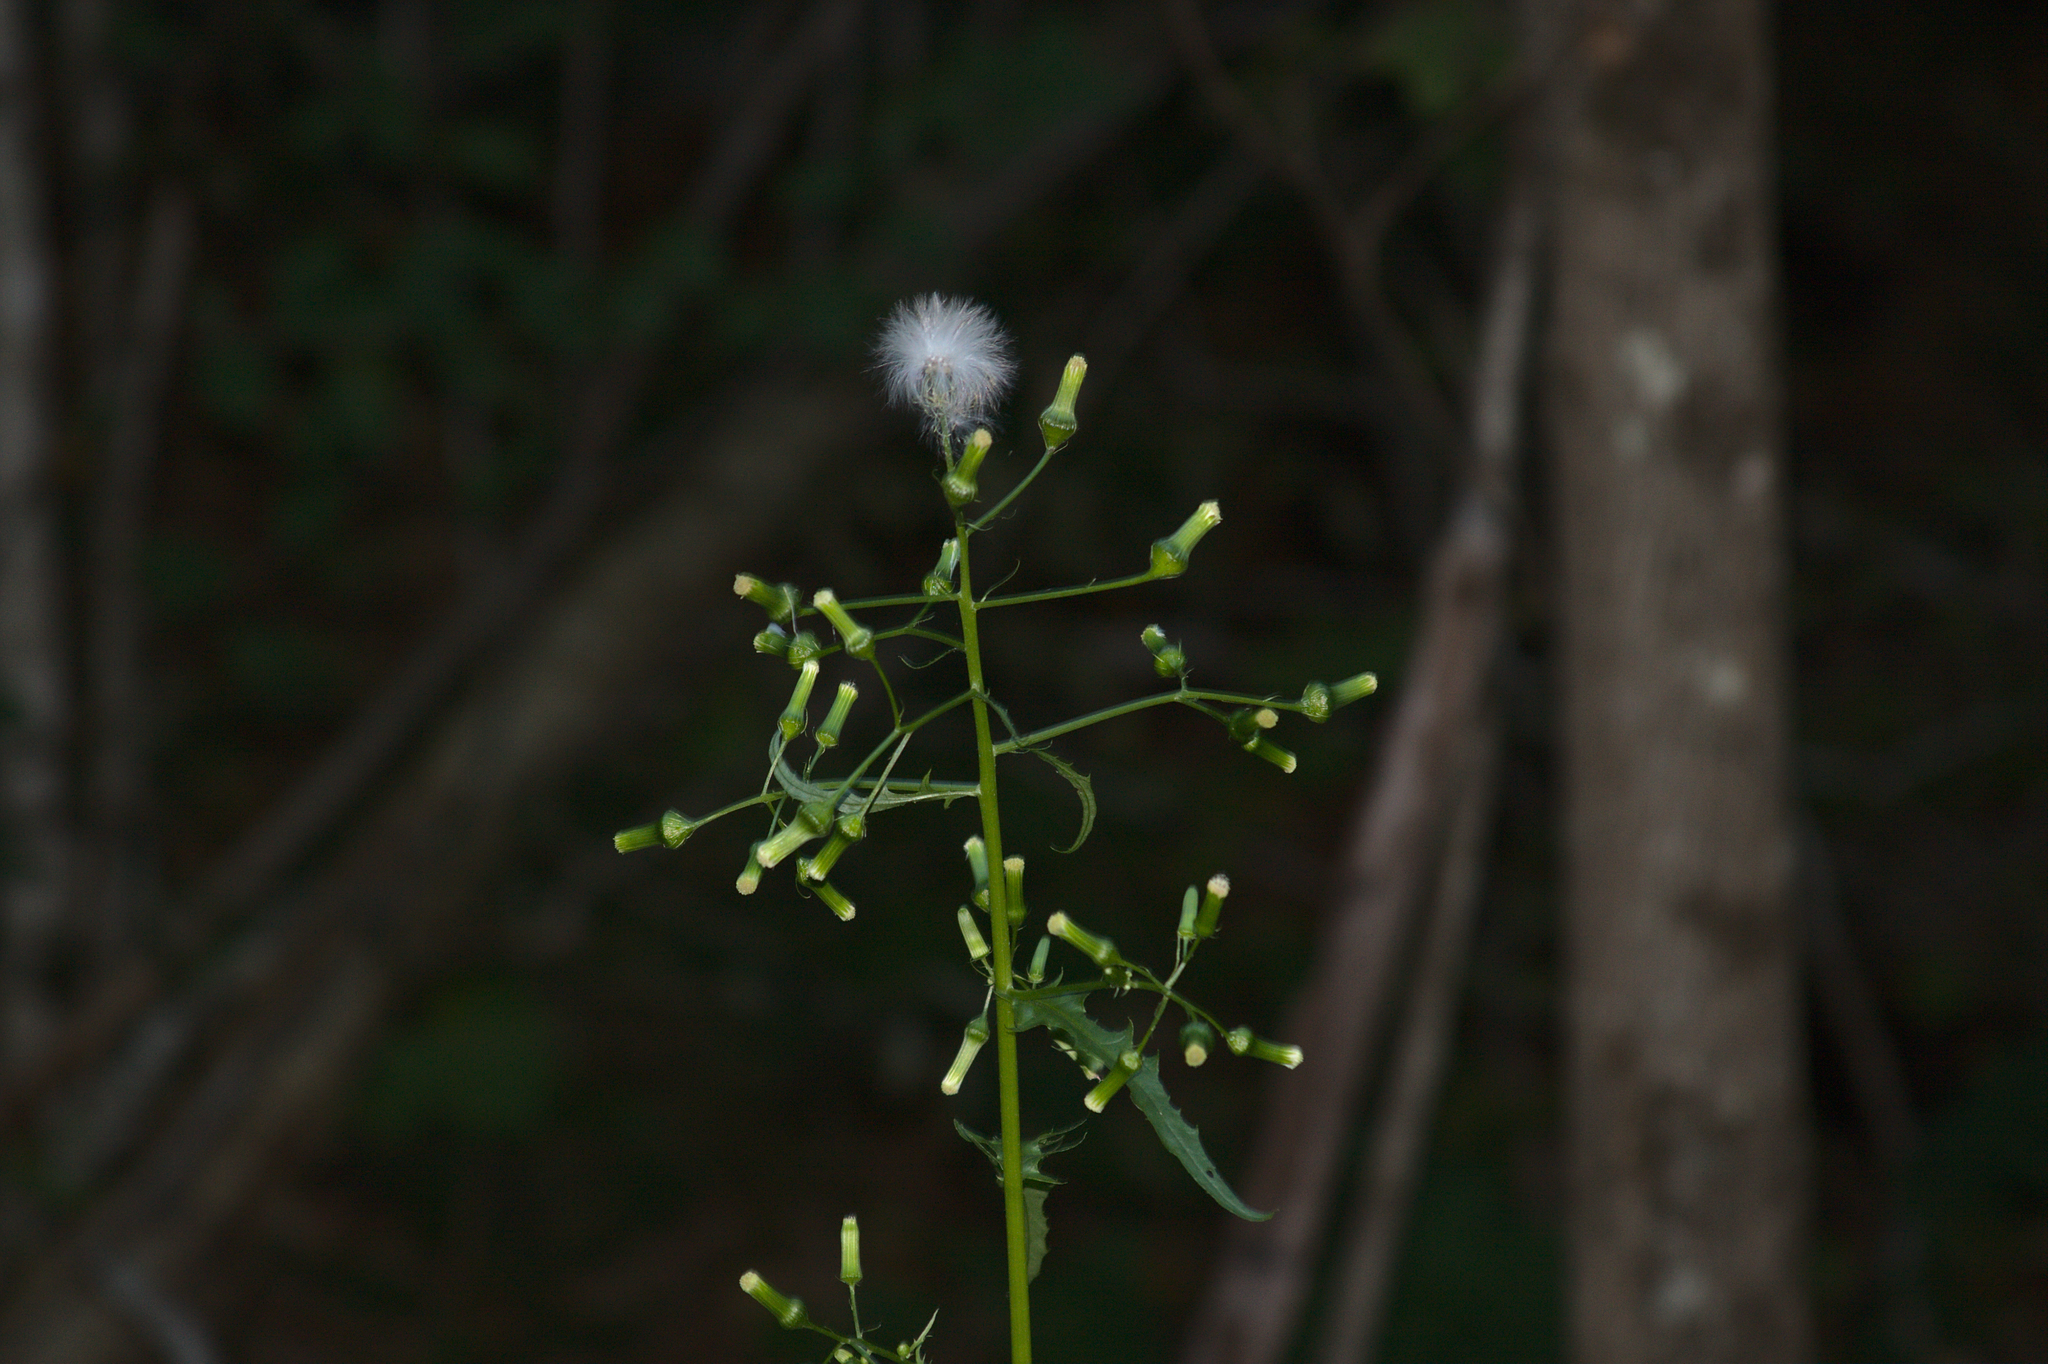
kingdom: Plantae
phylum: Tracheophyta
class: Magnoliopsida
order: Asterales
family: Asteraceae
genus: Erechtites
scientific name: Erechtites hieraciifolius
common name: American burnweed
